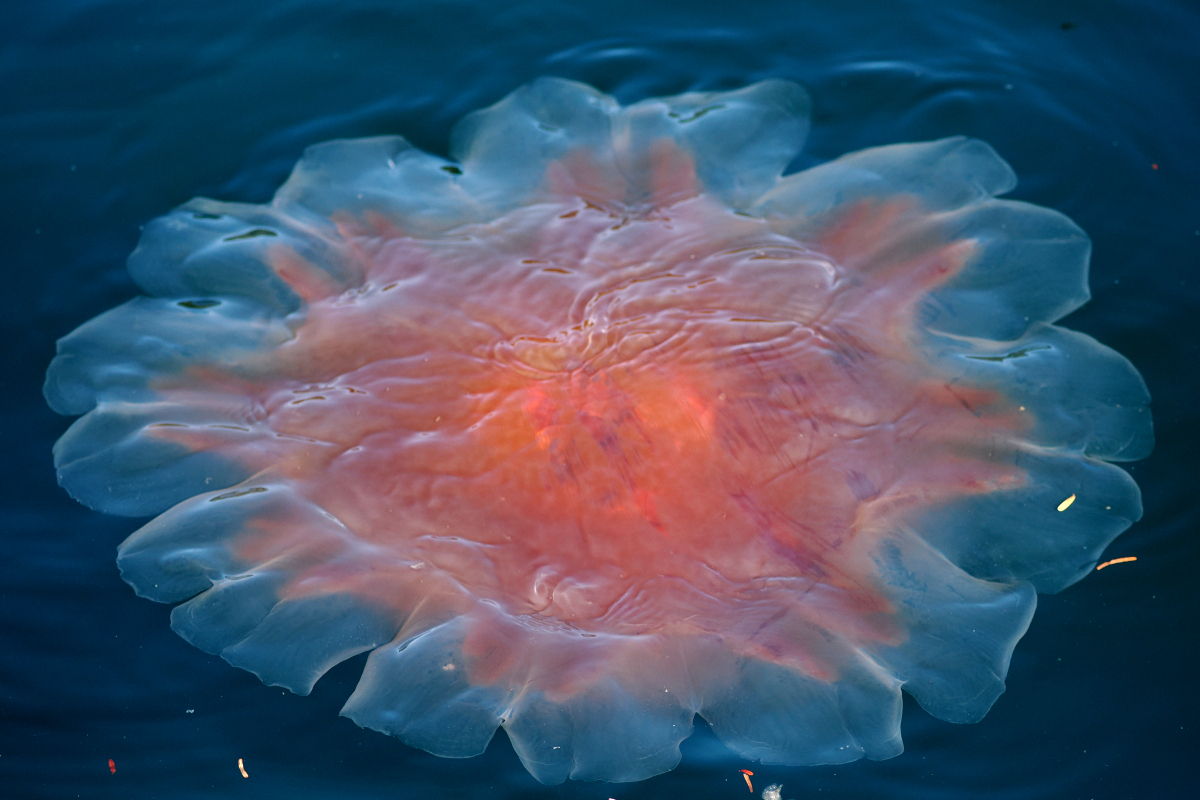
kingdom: Animalia
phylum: Cnidaria
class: Scyphozoa
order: Semaeostomeae
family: Cyaneidae
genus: Cyanea
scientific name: Cyanea ferruginea
